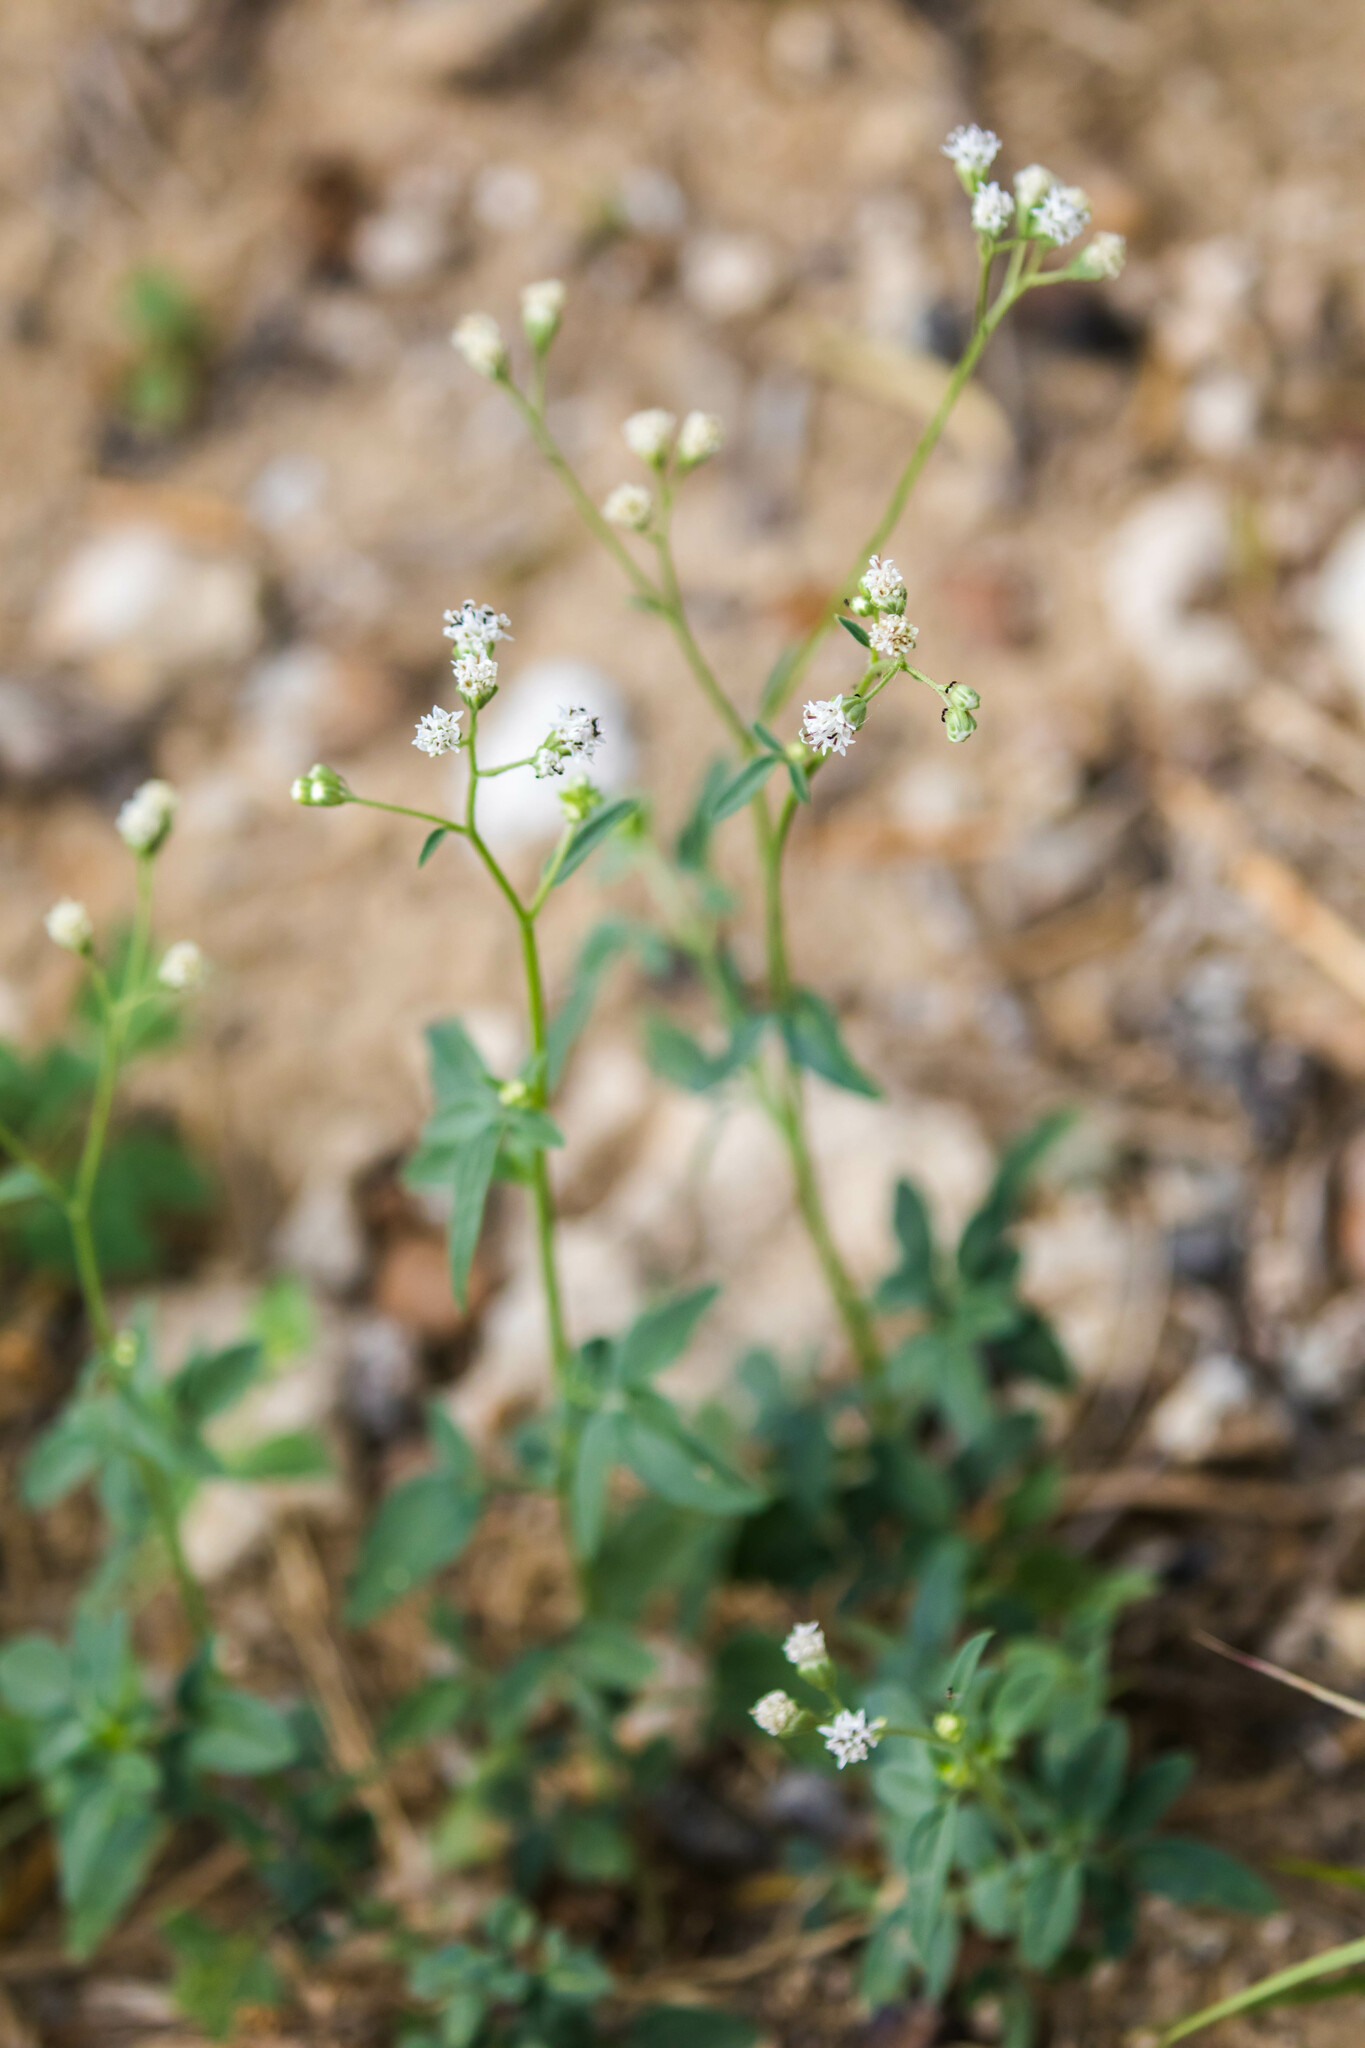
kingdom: Plantae
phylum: Tracheophyta
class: Magnoliopsida
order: Asterales
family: Asteraceae
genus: Florestina
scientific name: Florestina tripteris
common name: Sticky florestina
